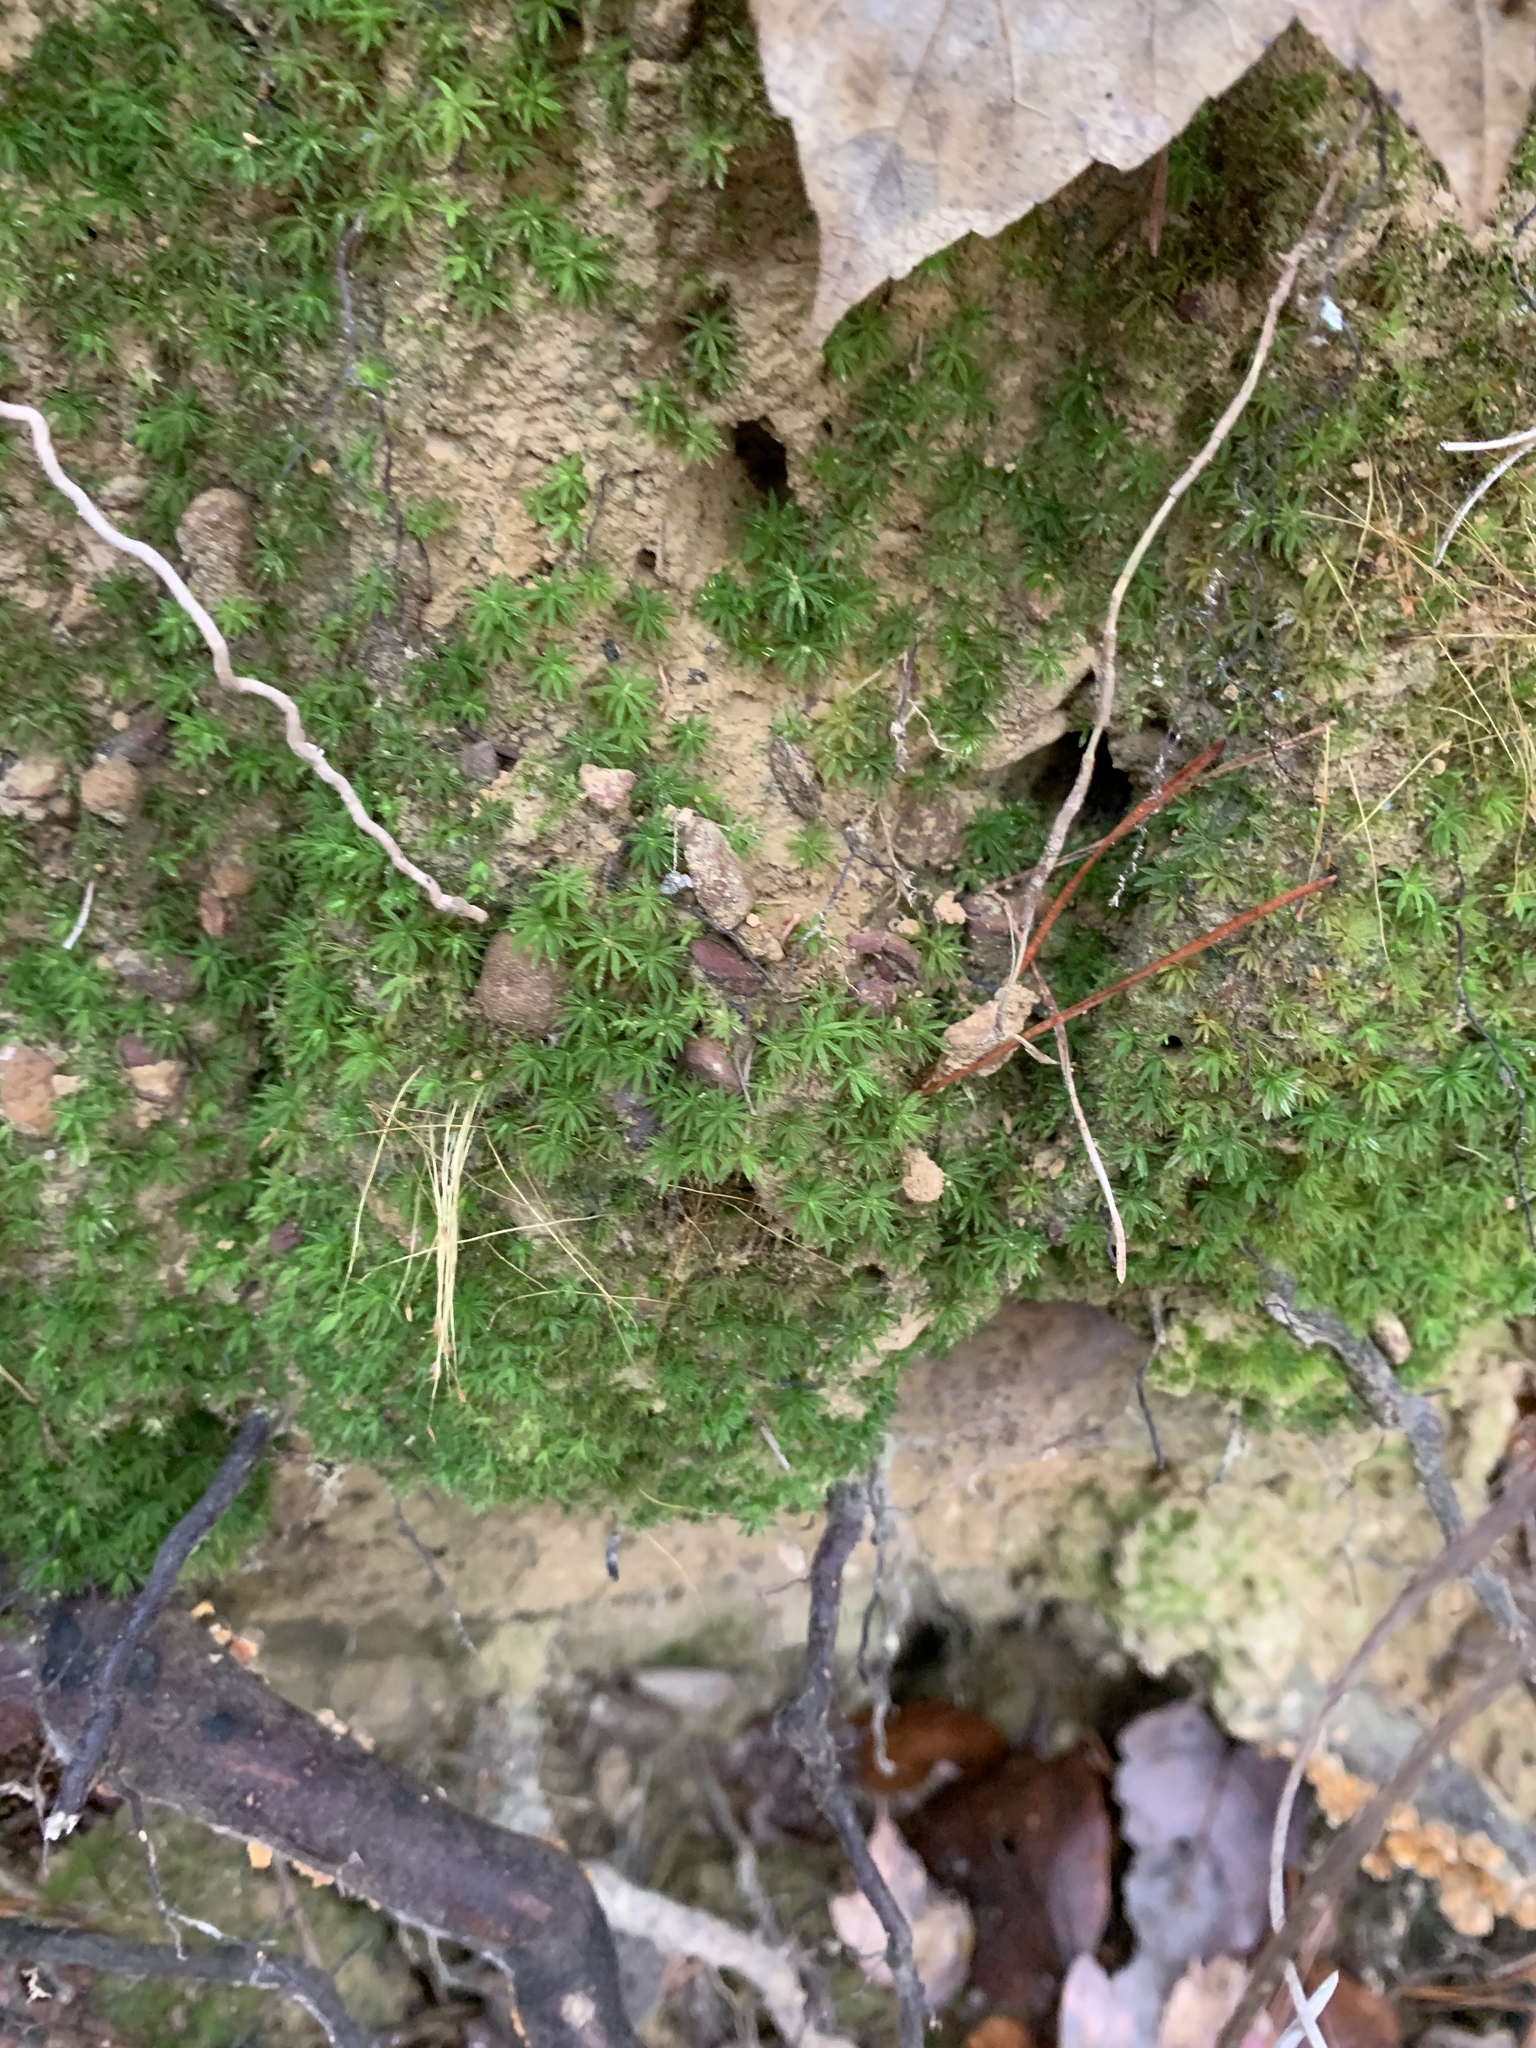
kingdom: Plantae
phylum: Bryophyta
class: Polytrichopsida
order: Polytrichales
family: Polytrichaceae
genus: Atrichum
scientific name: Atrichum angustatum
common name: Lesser smoothcap
